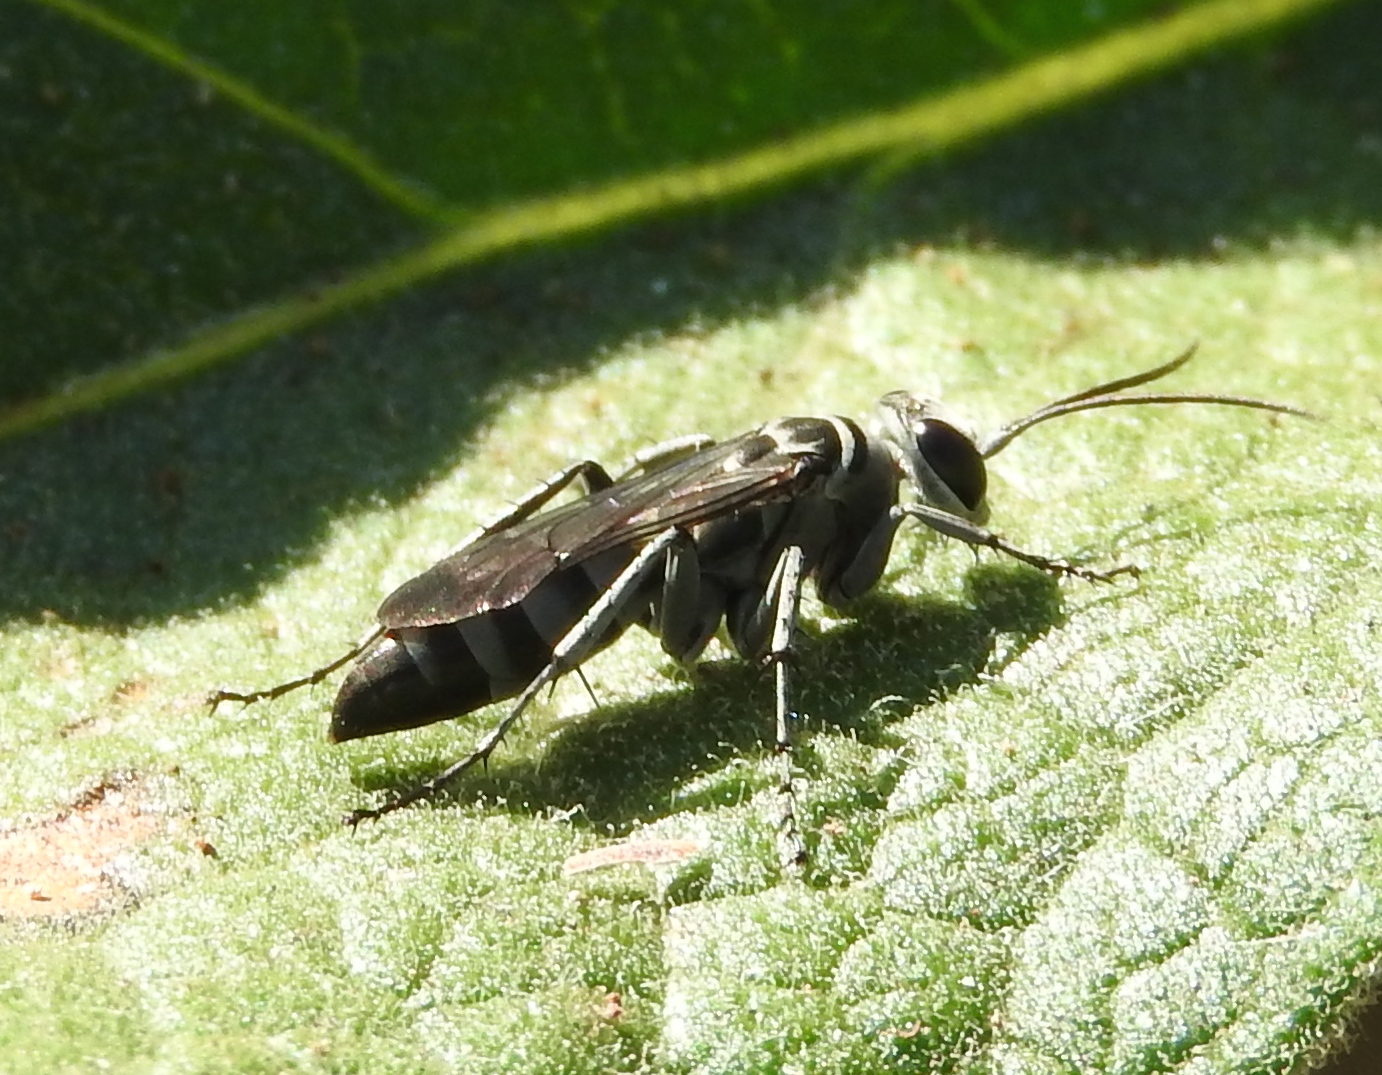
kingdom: Animalia
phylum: Arthropoda
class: Insecta
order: Hymenoptera
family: Pompilidae
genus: Aporinellus
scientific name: Aporinellus
